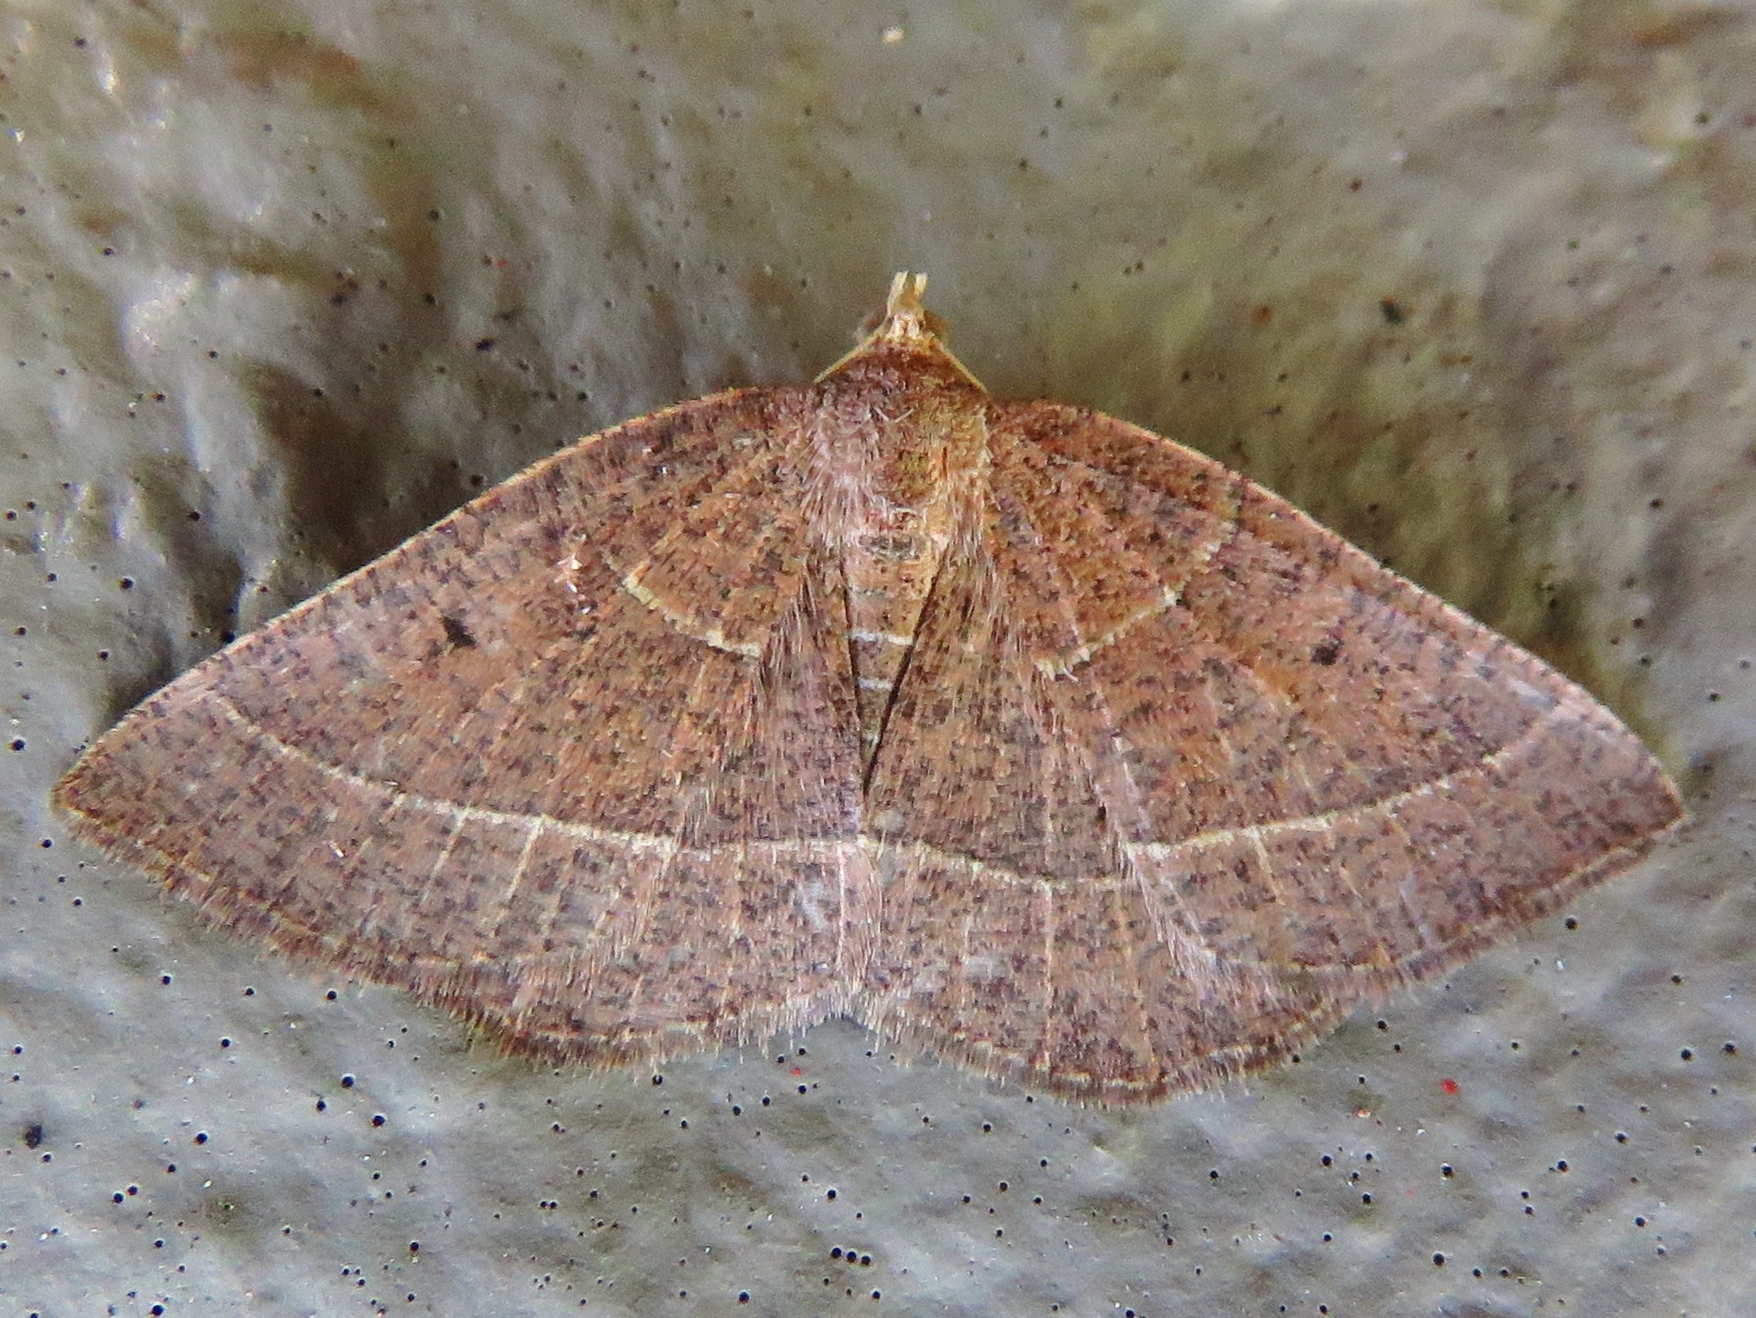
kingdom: Animalia
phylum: Arthropoda
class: Insecta
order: Lepidoptera
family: Geometridae
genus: Episemasia
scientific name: Episemasia cervinaria
